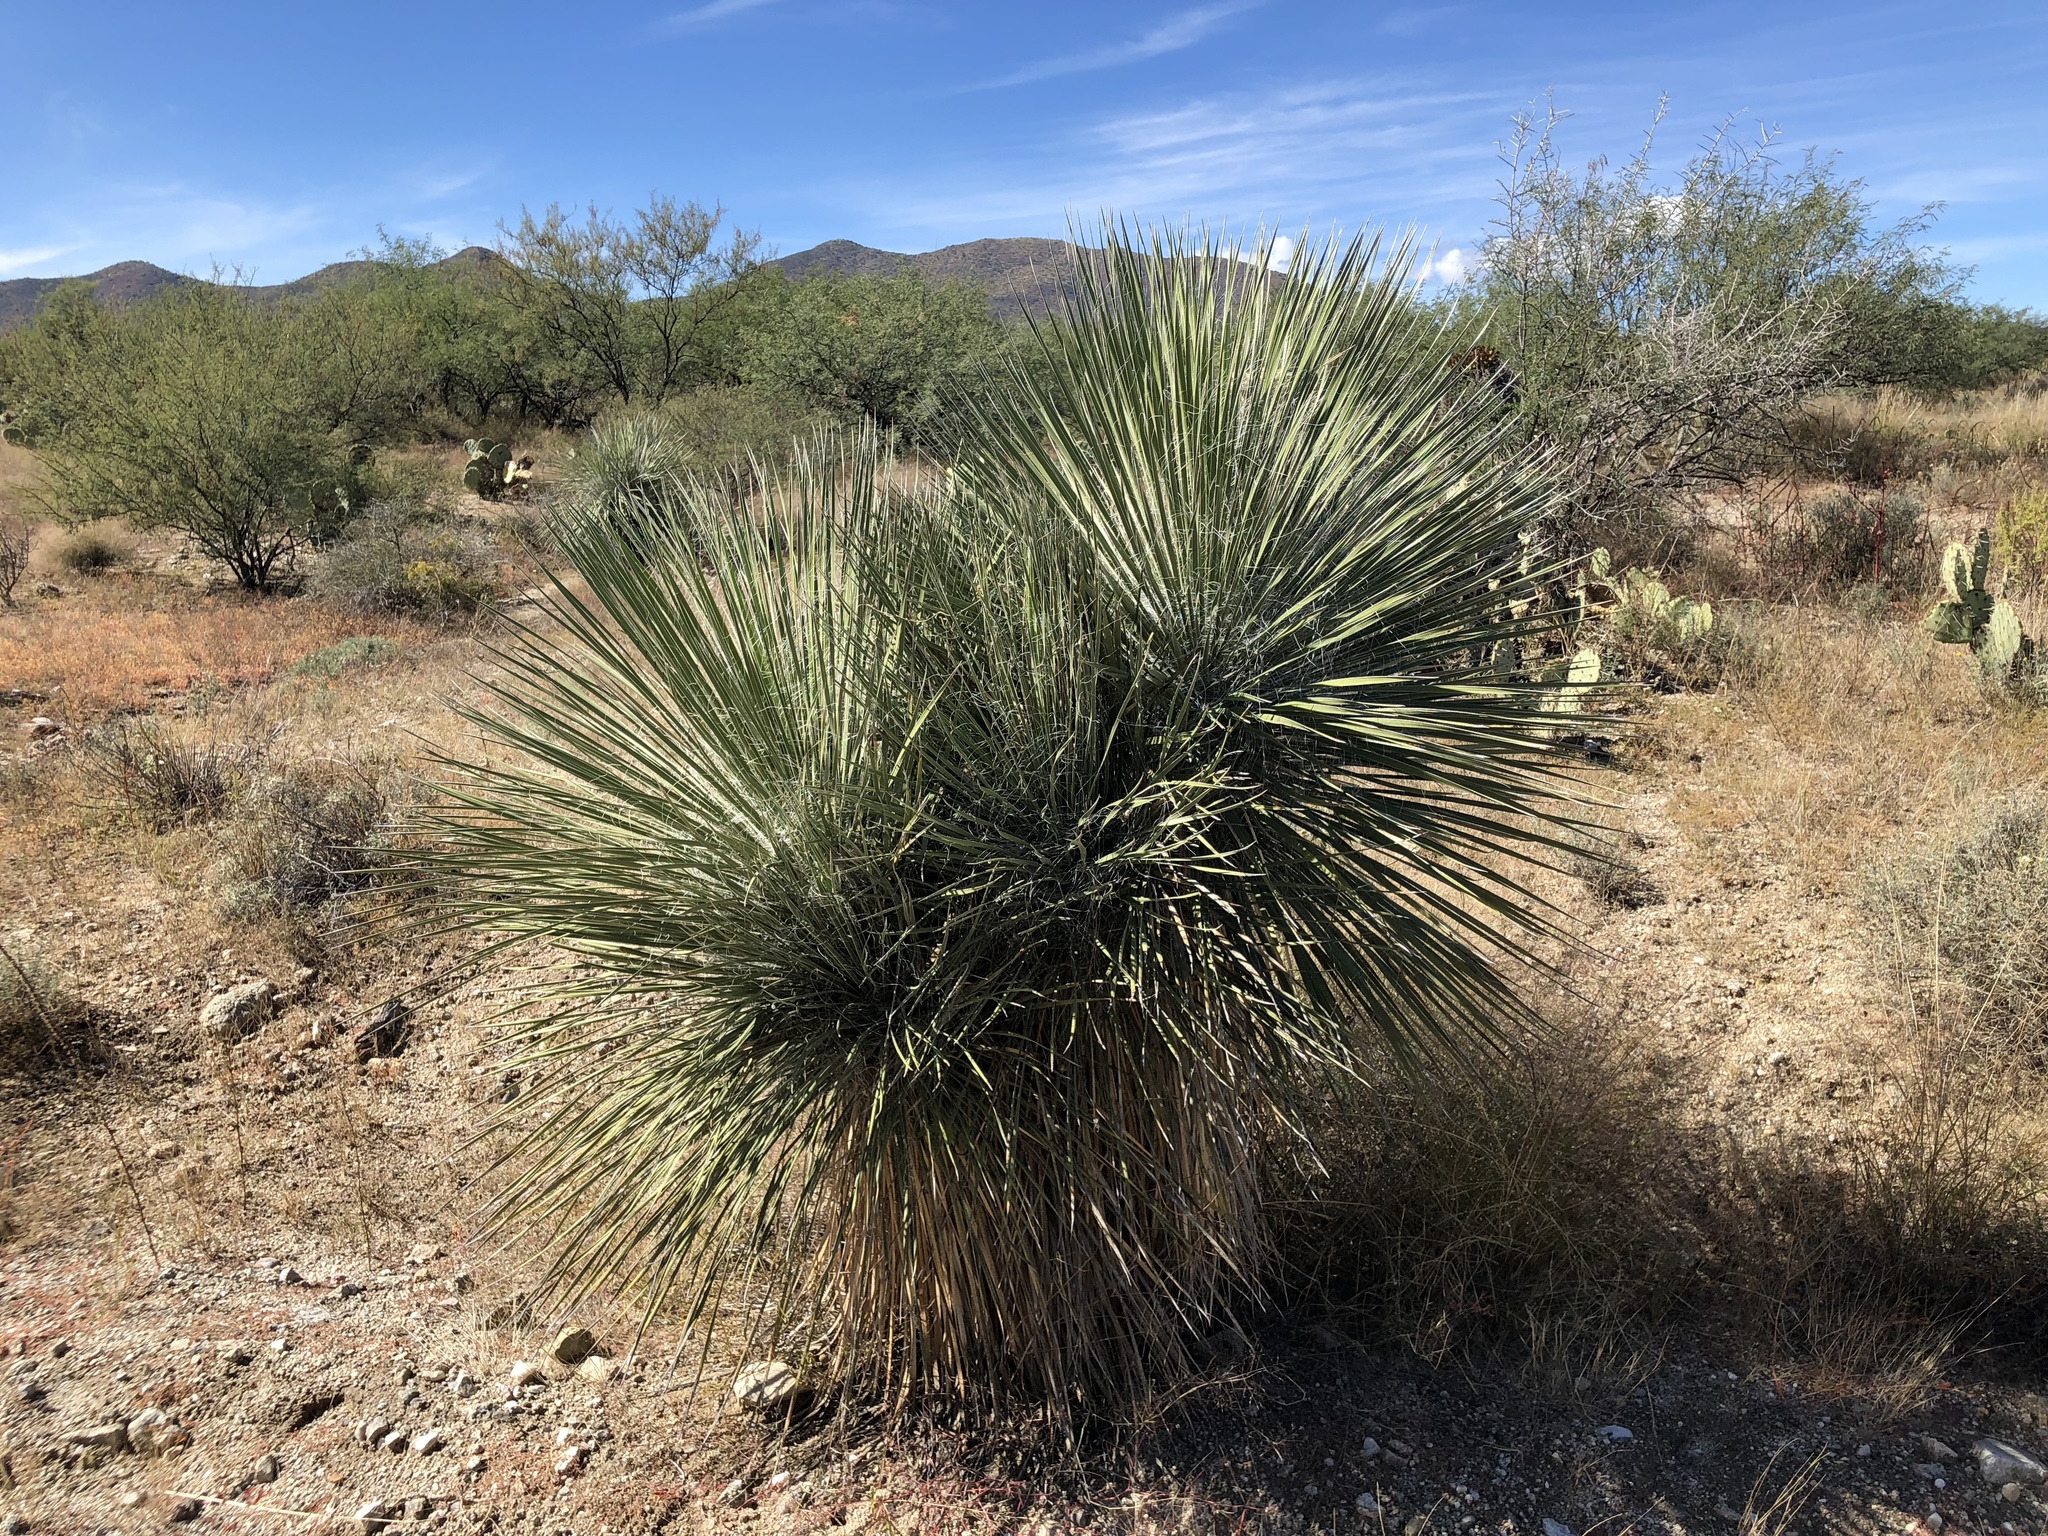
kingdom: Plantae
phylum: Tracheophyta
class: Liliopsida
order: Asparagales
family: Asparagaceae
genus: Yucca
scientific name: Yucca elata
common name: Palmella
